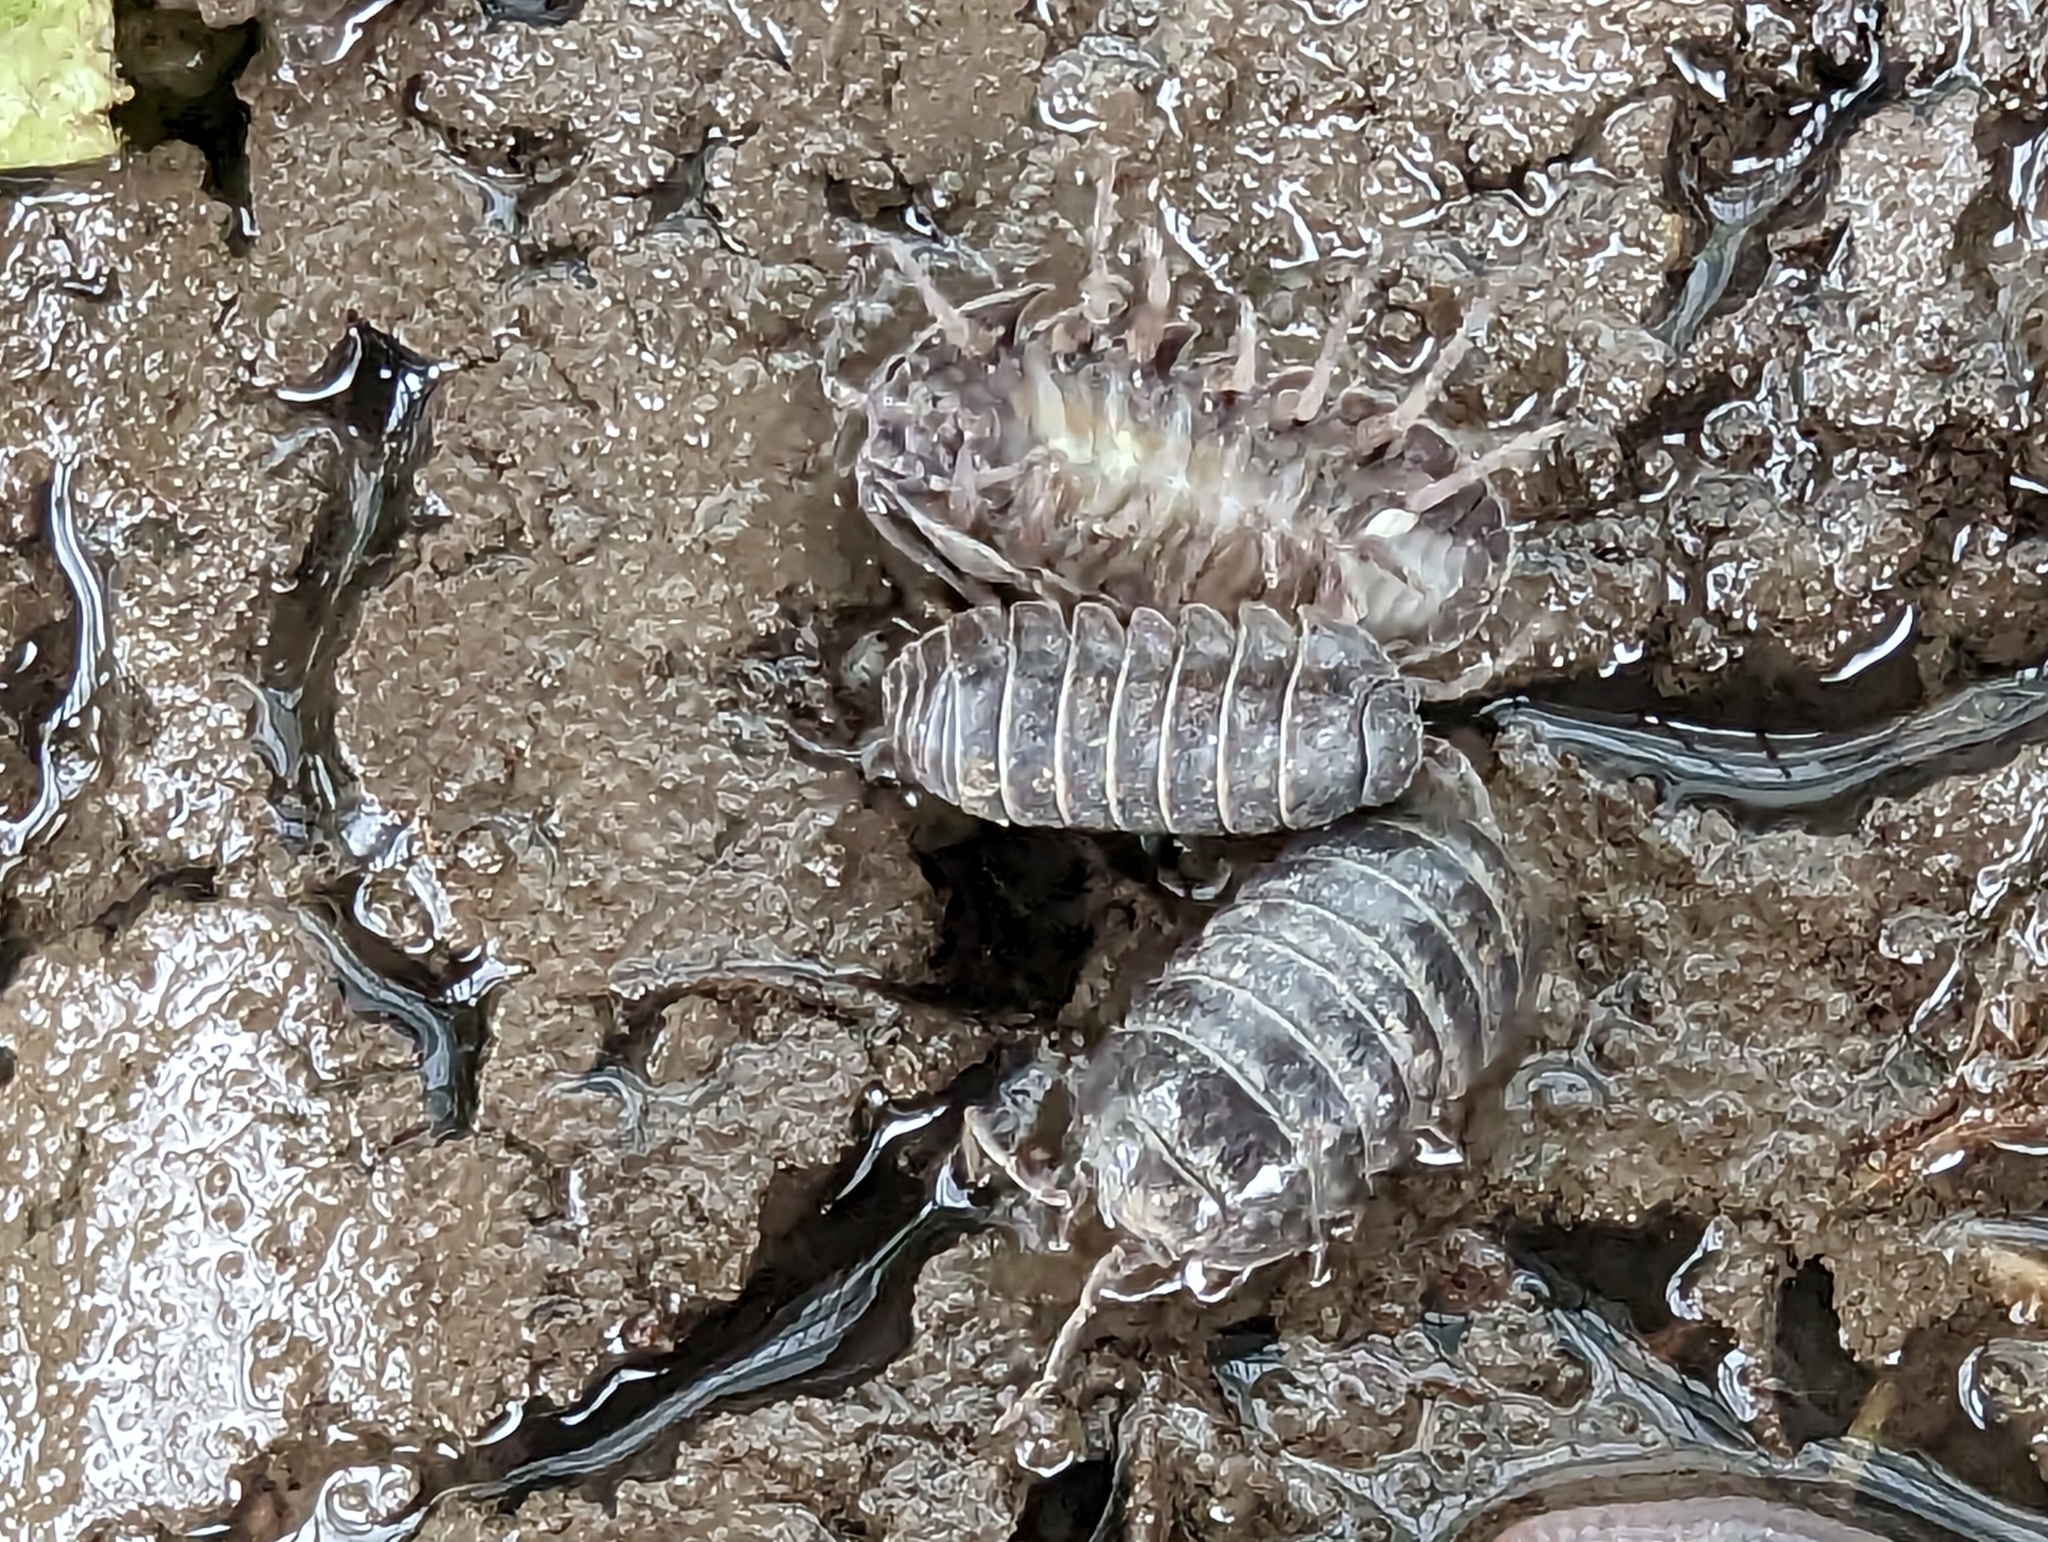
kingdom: Animalia
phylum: Arthropoda
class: Malacostraca
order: Isopoda
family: Armadillidiidae
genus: Armadillidium
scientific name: Armadillidium vulgare
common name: Common pill woodlouse
